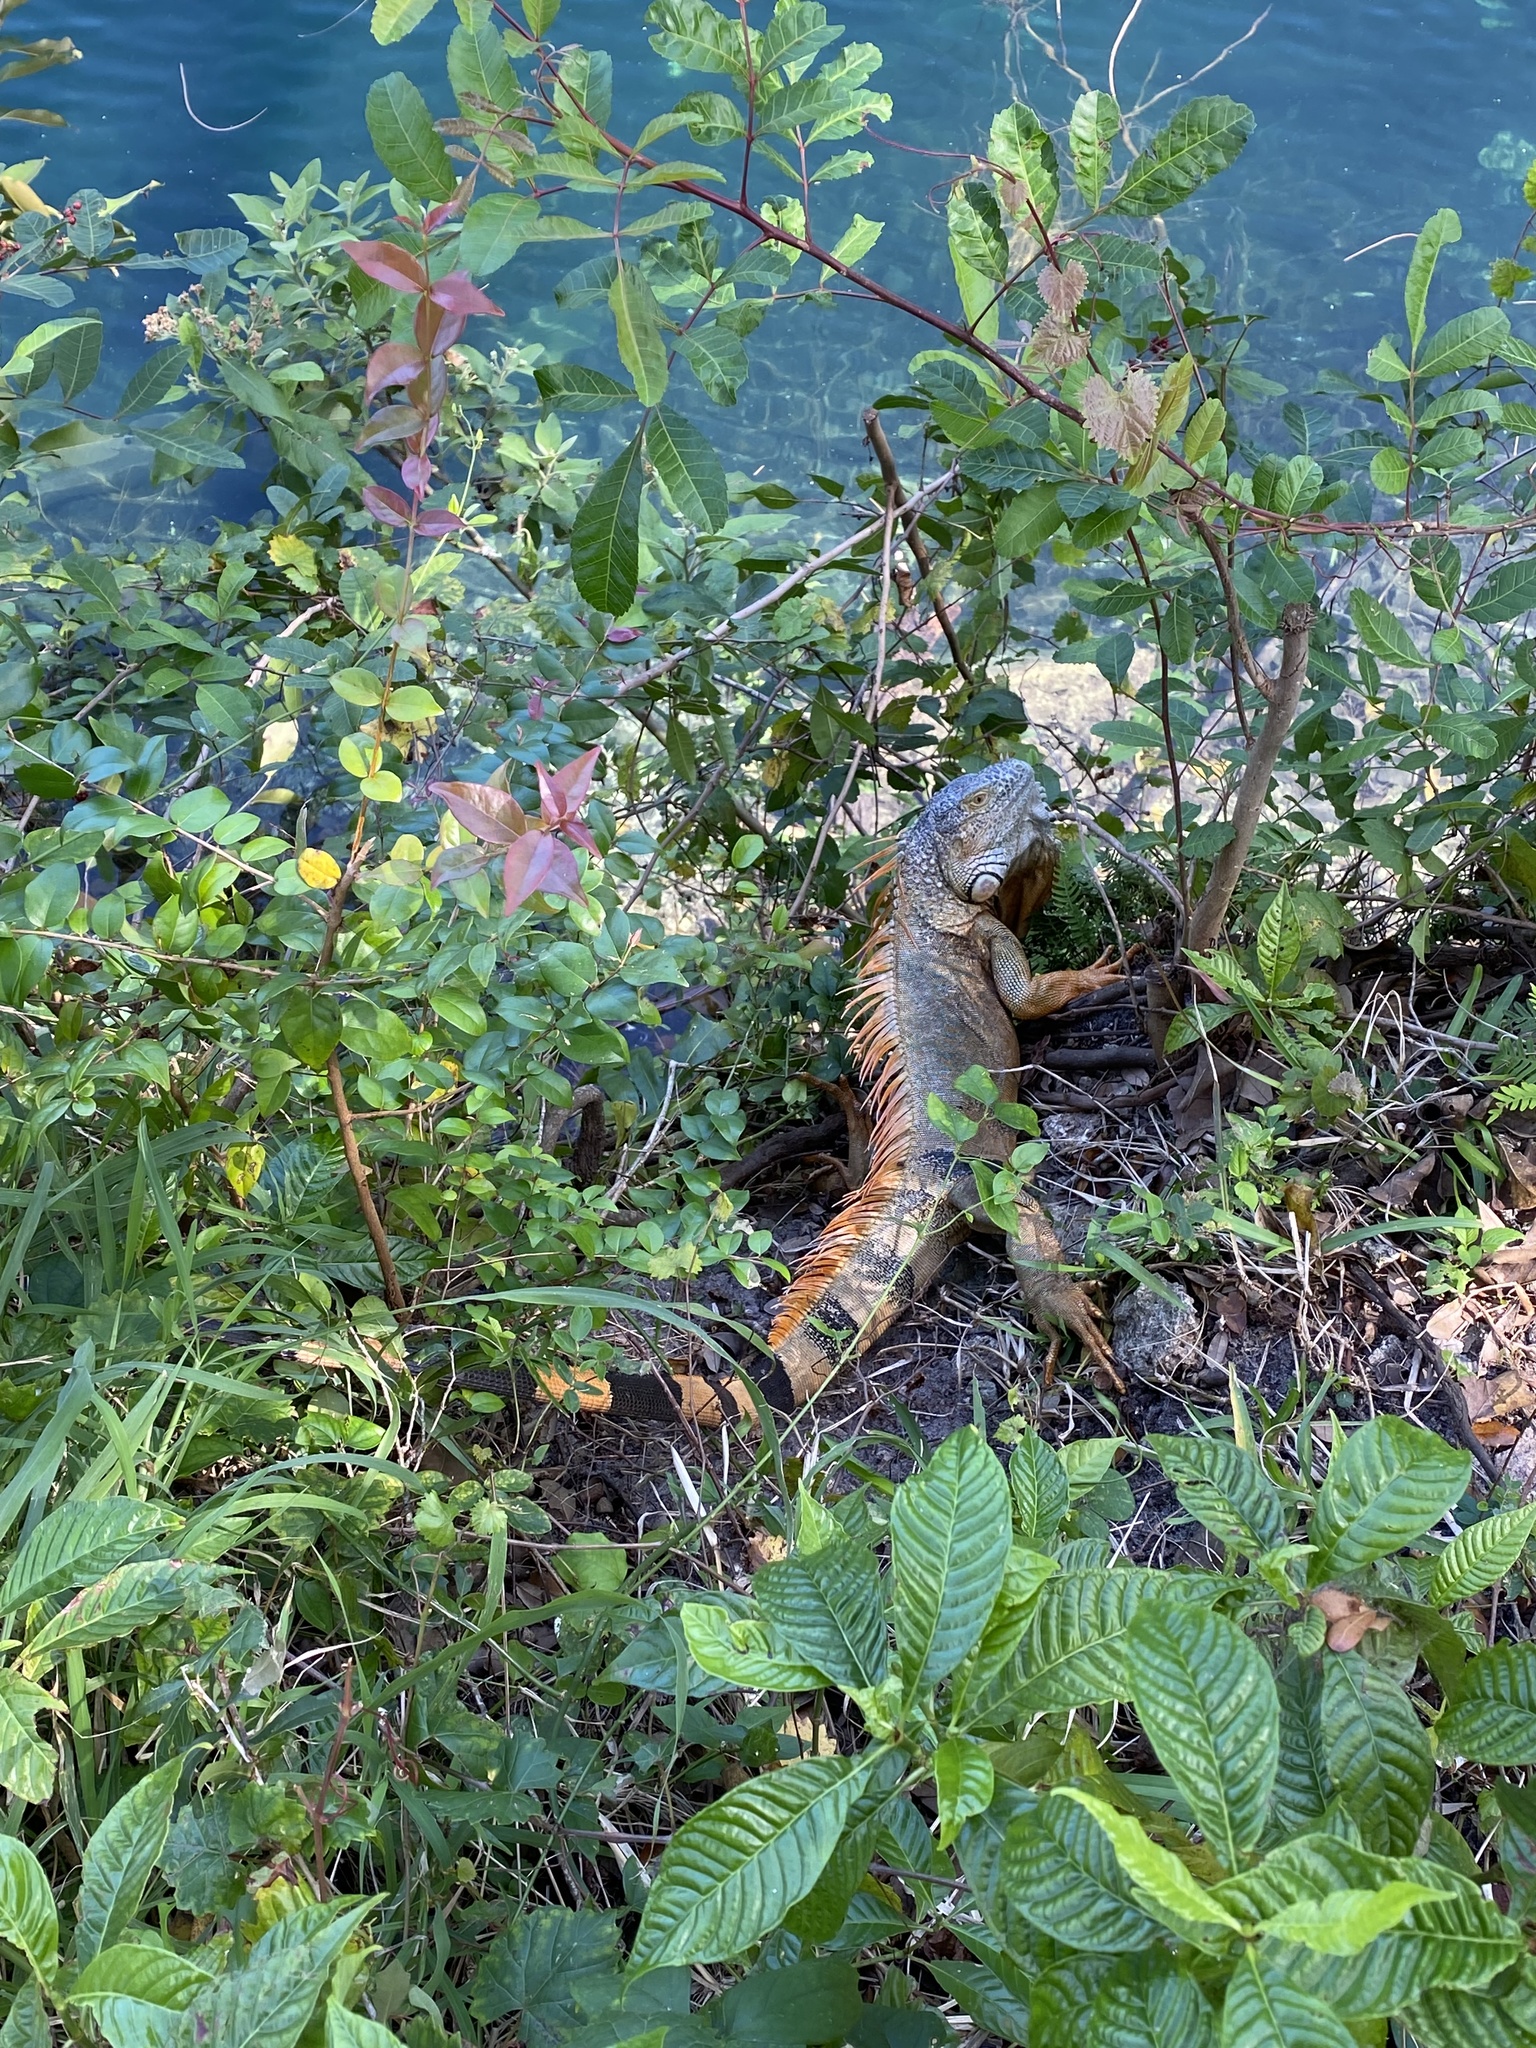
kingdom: Animalia
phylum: Chordata
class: Squamata
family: Iguanidae
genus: Iguana
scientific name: Iguana iguana
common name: Green iguana
